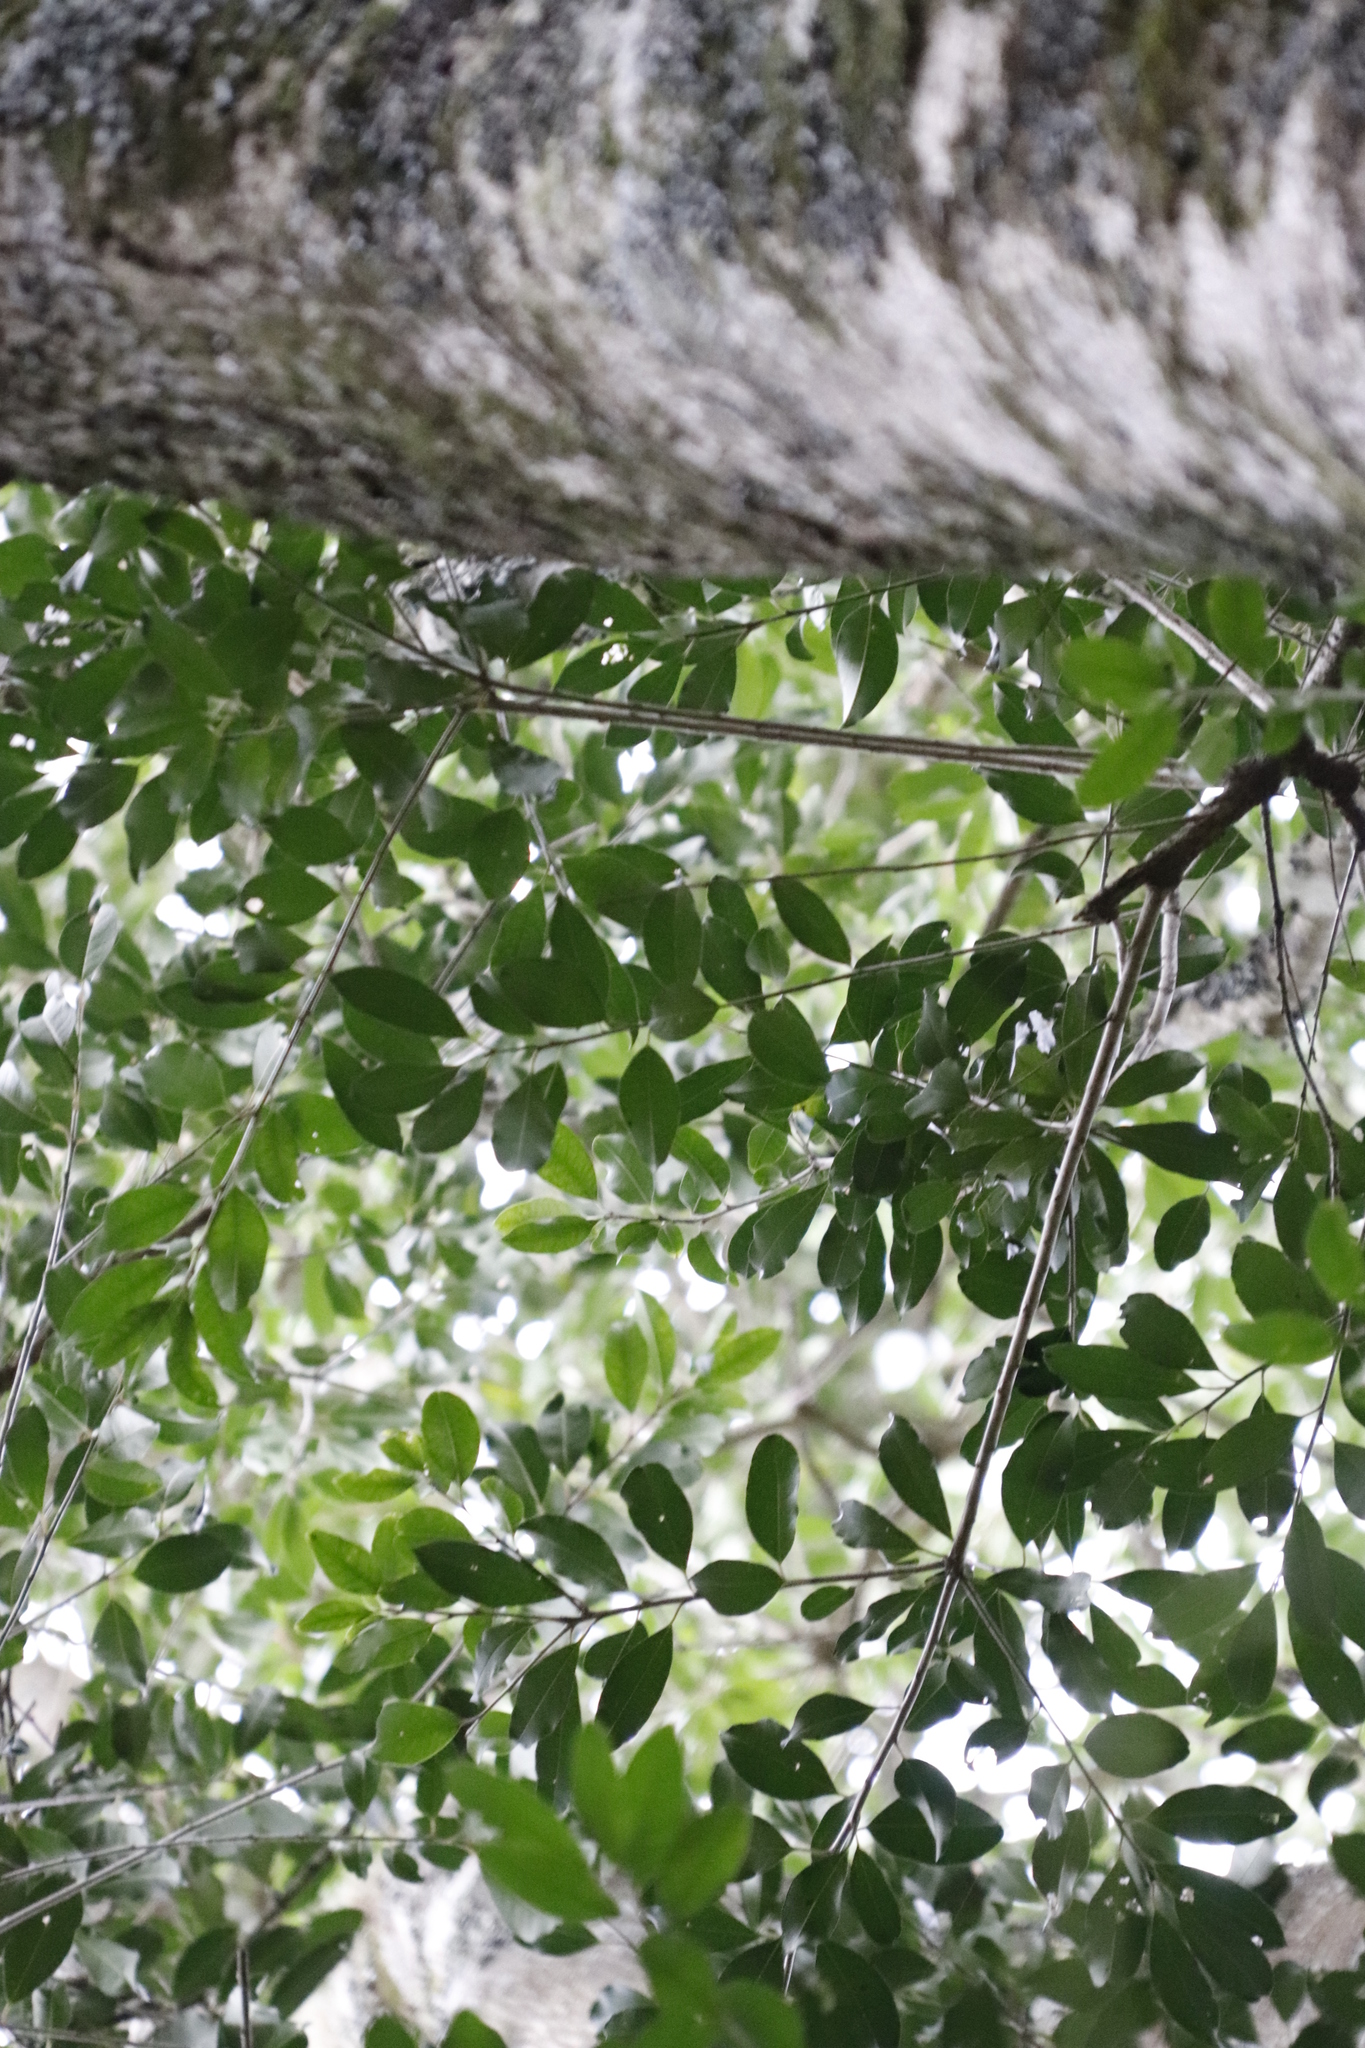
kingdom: Plantae
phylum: Tracheophyta
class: Magnoliopsida
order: Aquifoliales
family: Aquifoliaceae
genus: Ilex
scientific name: Ilex mitis
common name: African holly
